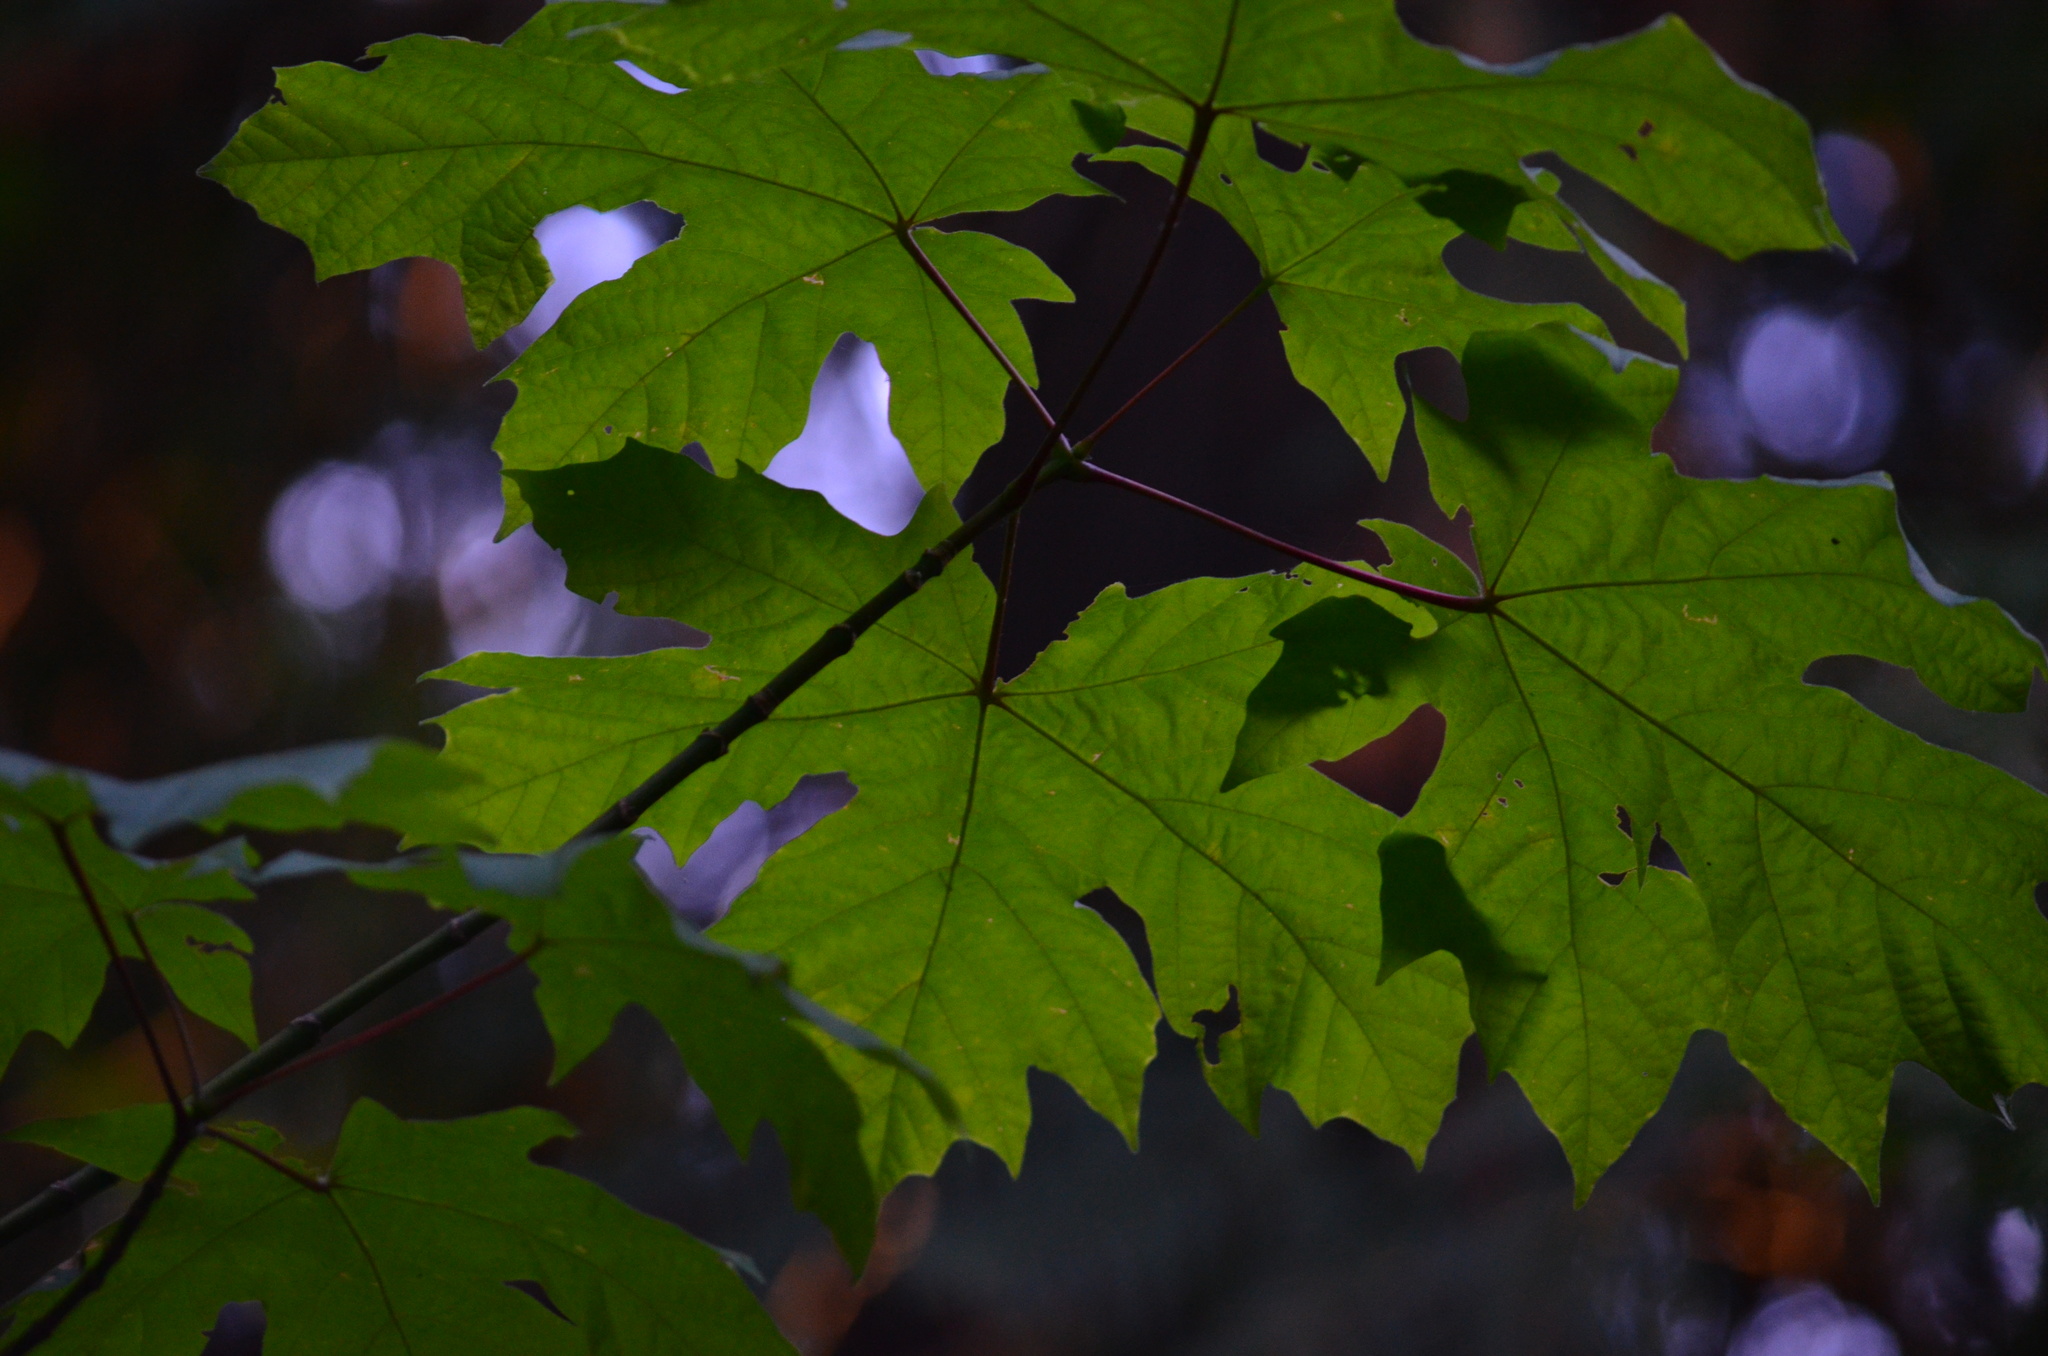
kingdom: Plantae
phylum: Tracheophyta
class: Magnoliopsida
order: Sapindales
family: Sapindaceae
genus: Acer
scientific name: Acer macrophyllum
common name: Oregon maple
